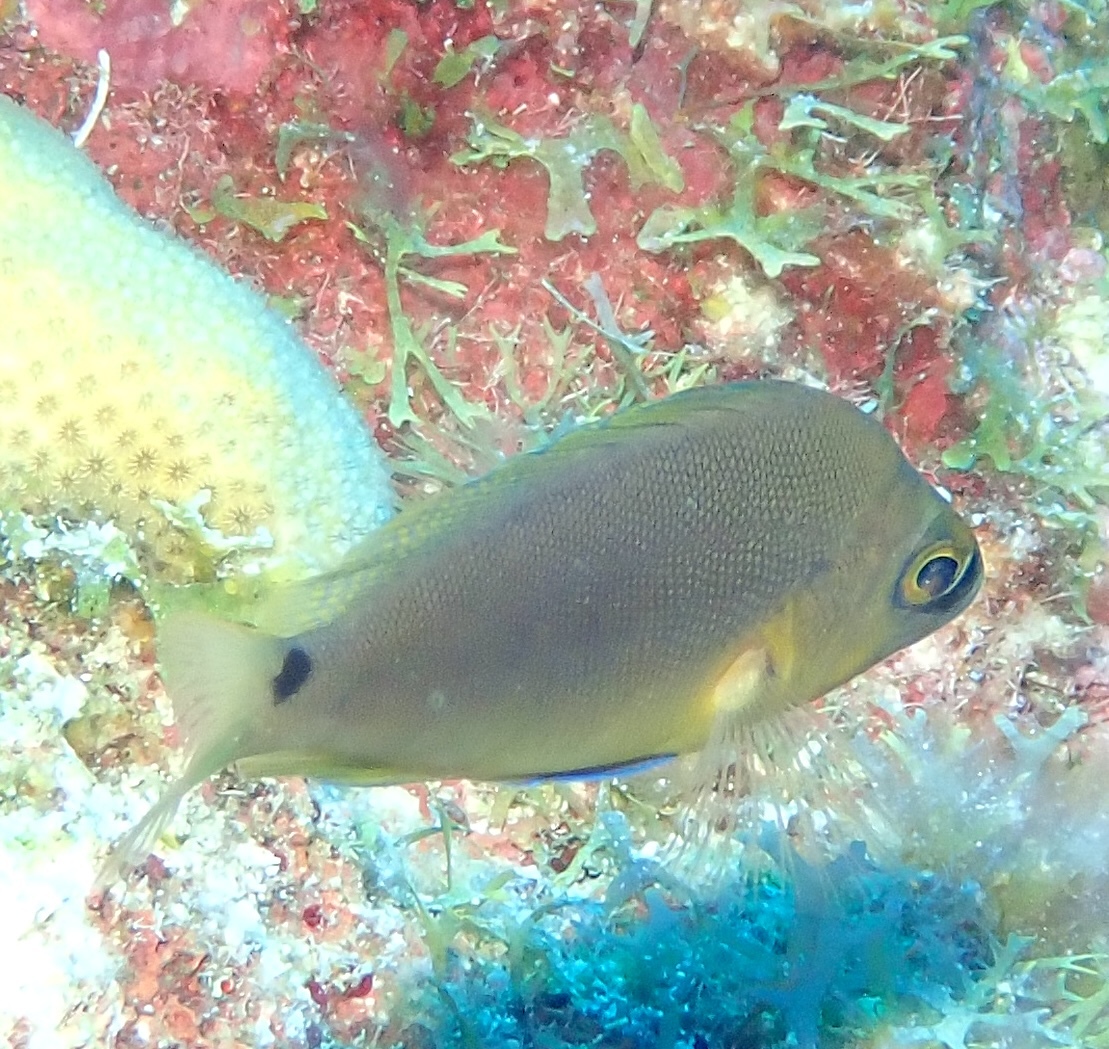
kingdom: Animalia
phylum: Chordata
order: Perciformes
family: Serranidae
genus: Hypoplectrus
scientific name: Hypoplectrus unicolor
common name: Butter hamlet
